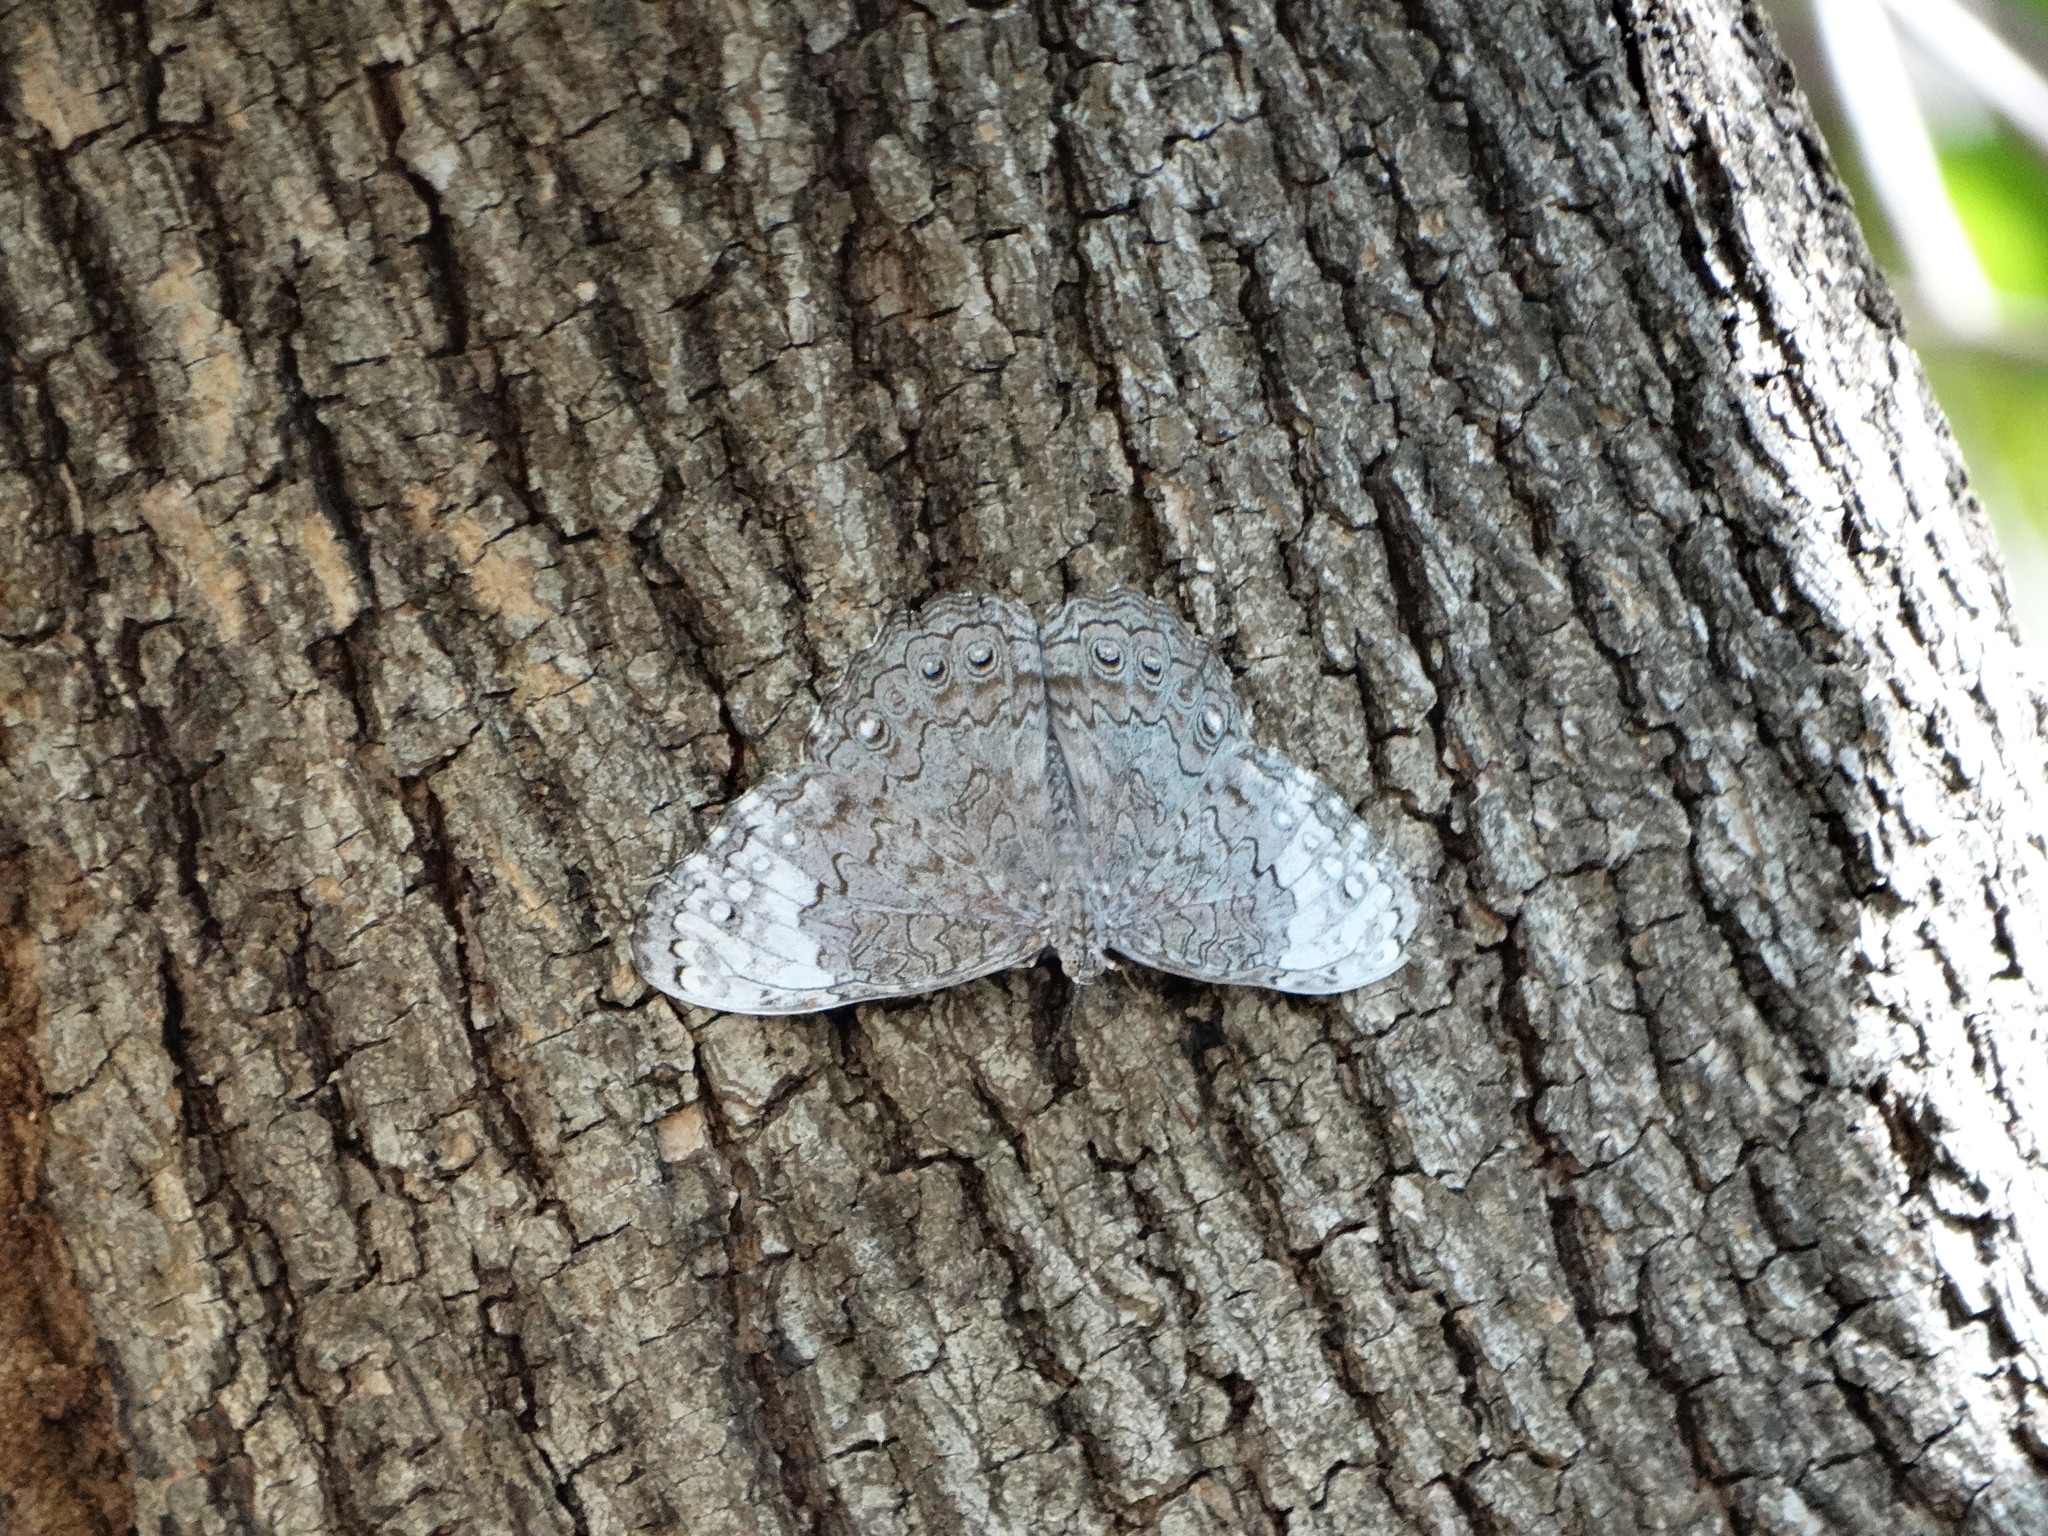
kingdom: Animalia
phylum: Arthropoda
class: Insecta
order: Lepidoptera
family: Nymphalidae
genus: Hamadryas
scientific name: Hamadryas glauconome
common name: Glaucous cracker
